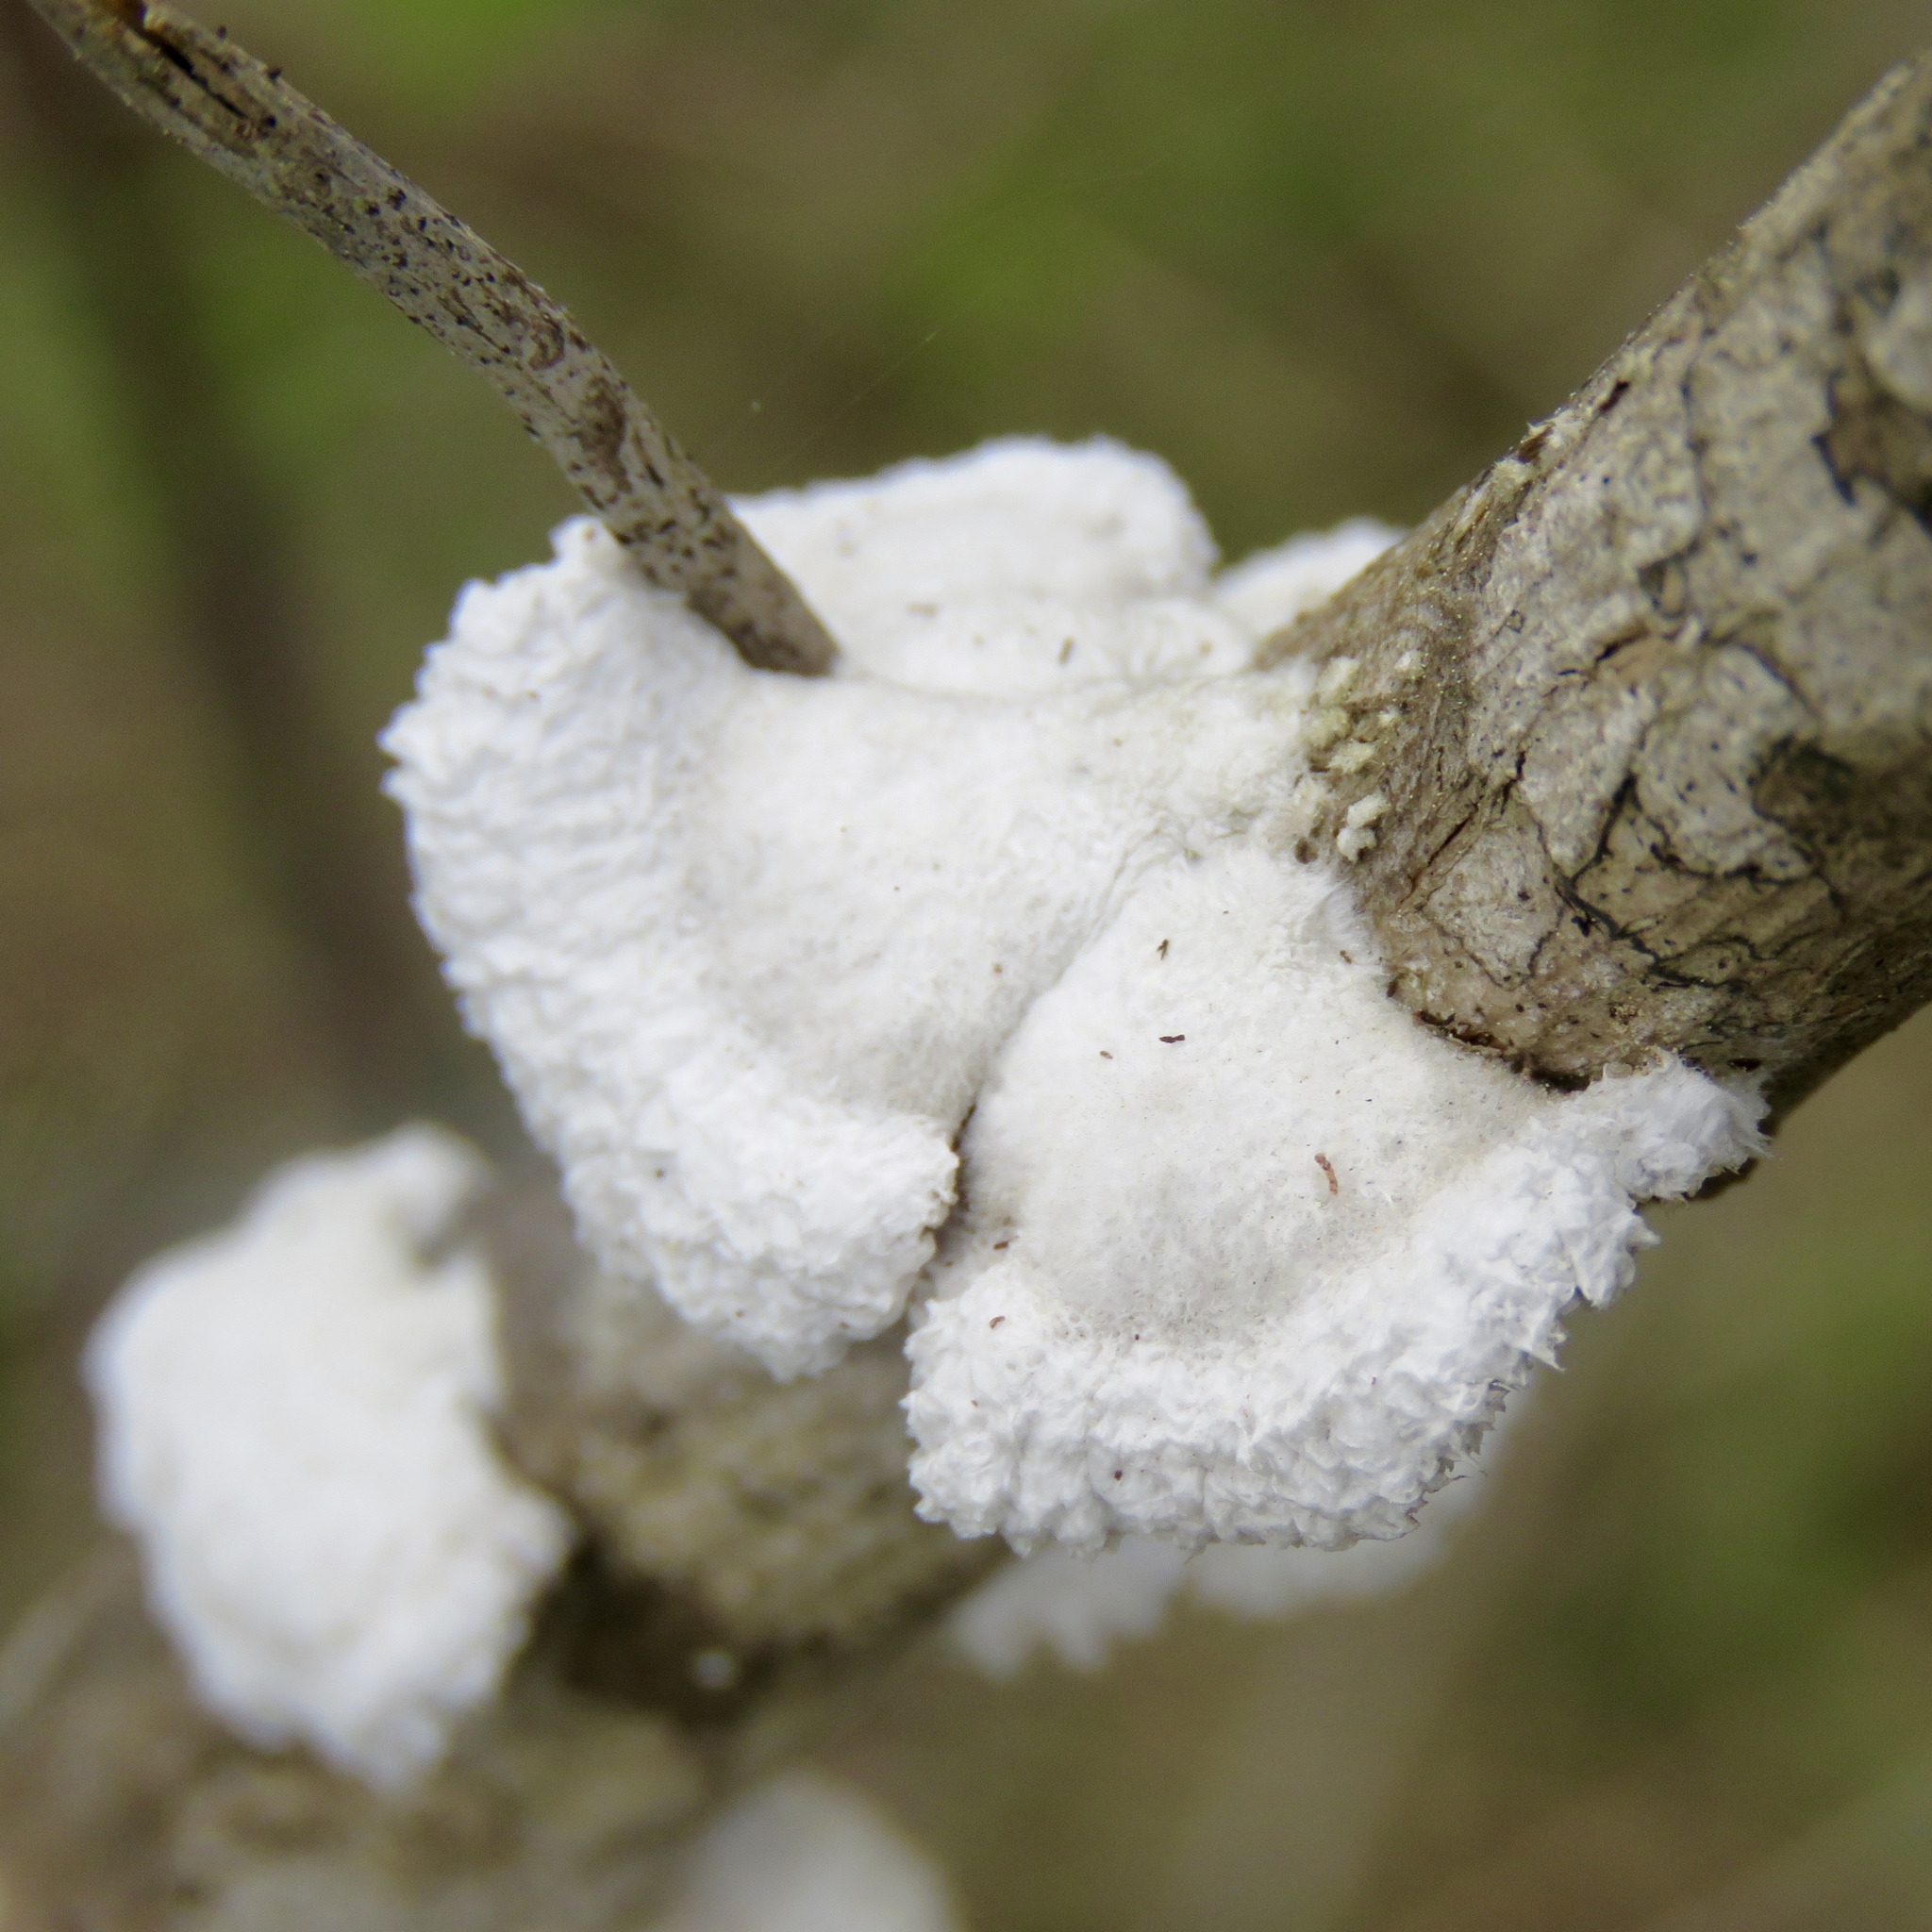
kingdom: Fungi
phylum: Basidiomycota
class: Agaricomycetes
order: Agaricales
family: Schizophyllaceae
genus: Schizophyllum
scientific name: Schizophyllum commune
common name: Common porecrust
